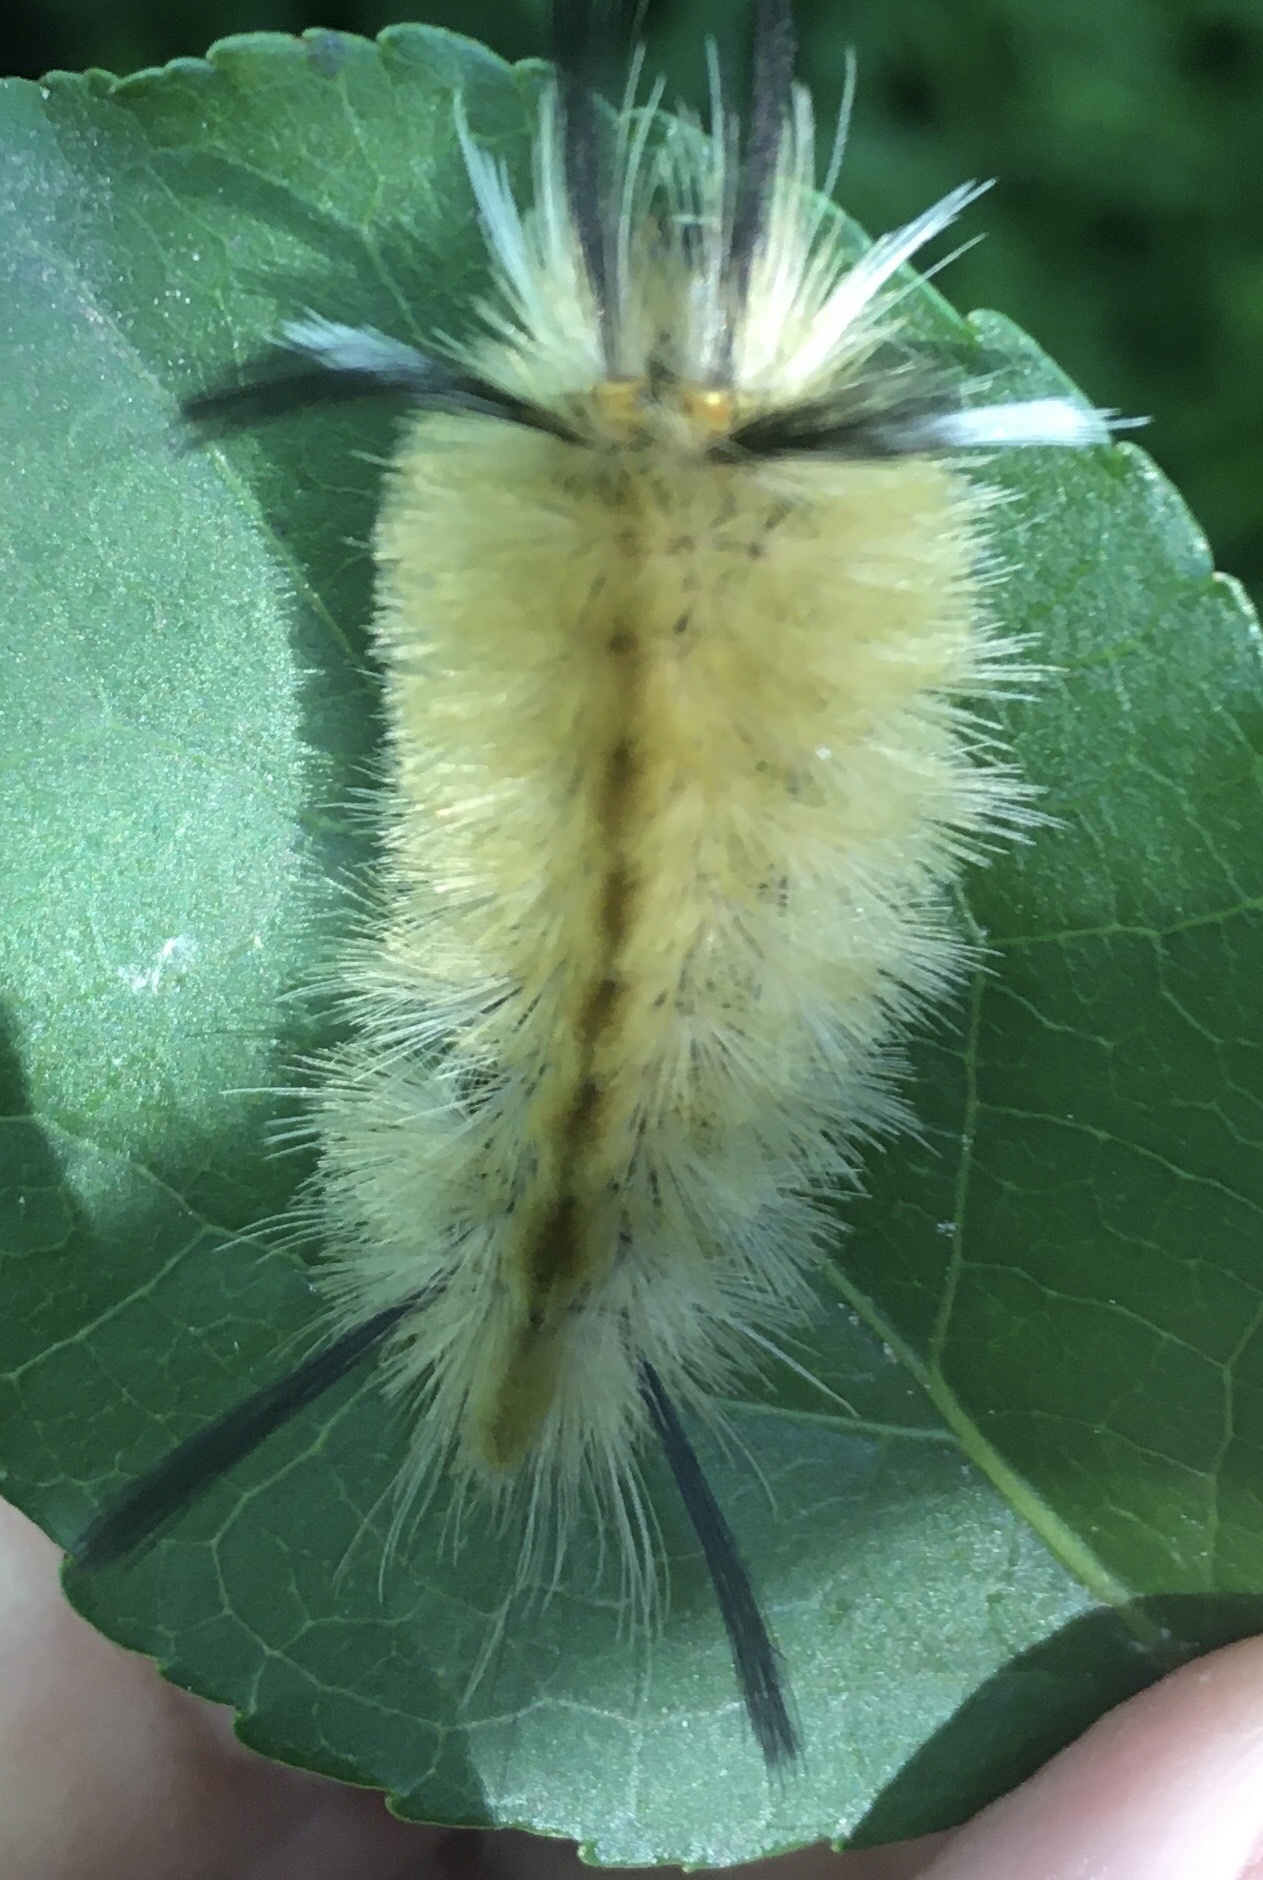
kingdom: Animalia
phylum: Arthropoda
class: Insecta
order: Lepidoptera
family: Erebidae
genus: Halysidota
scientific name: Halysidota tessellaris
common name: Banded tussock moth
